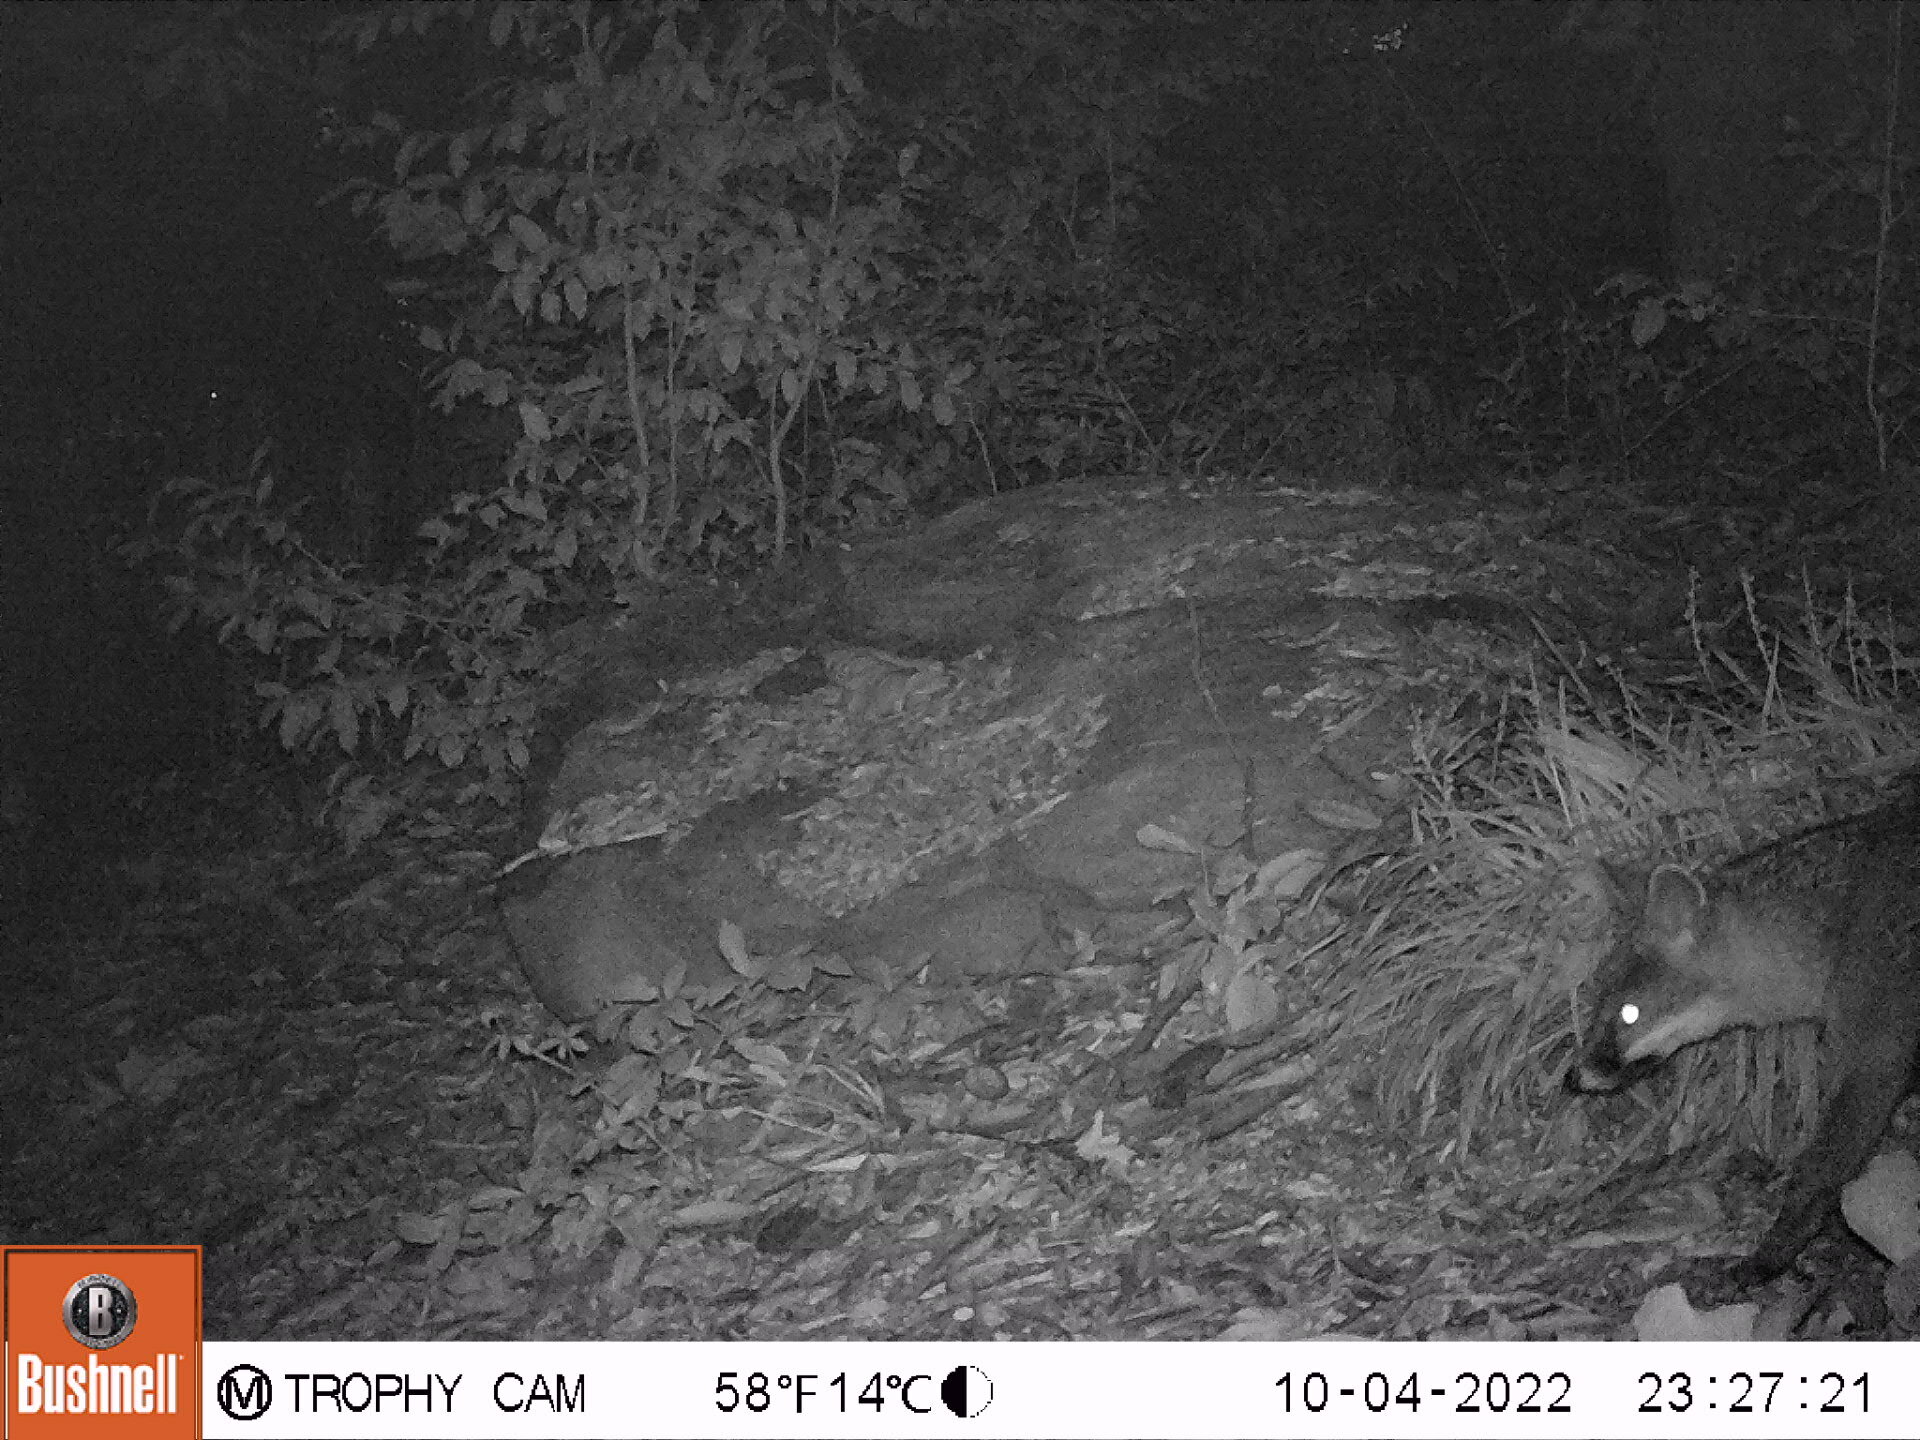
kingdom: Animalia
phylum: Chordata
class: Mammalia
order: Carnivora
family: Canidae
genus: Urocyon
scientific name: Urocyon cinereoargenteus
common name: Gray fox
